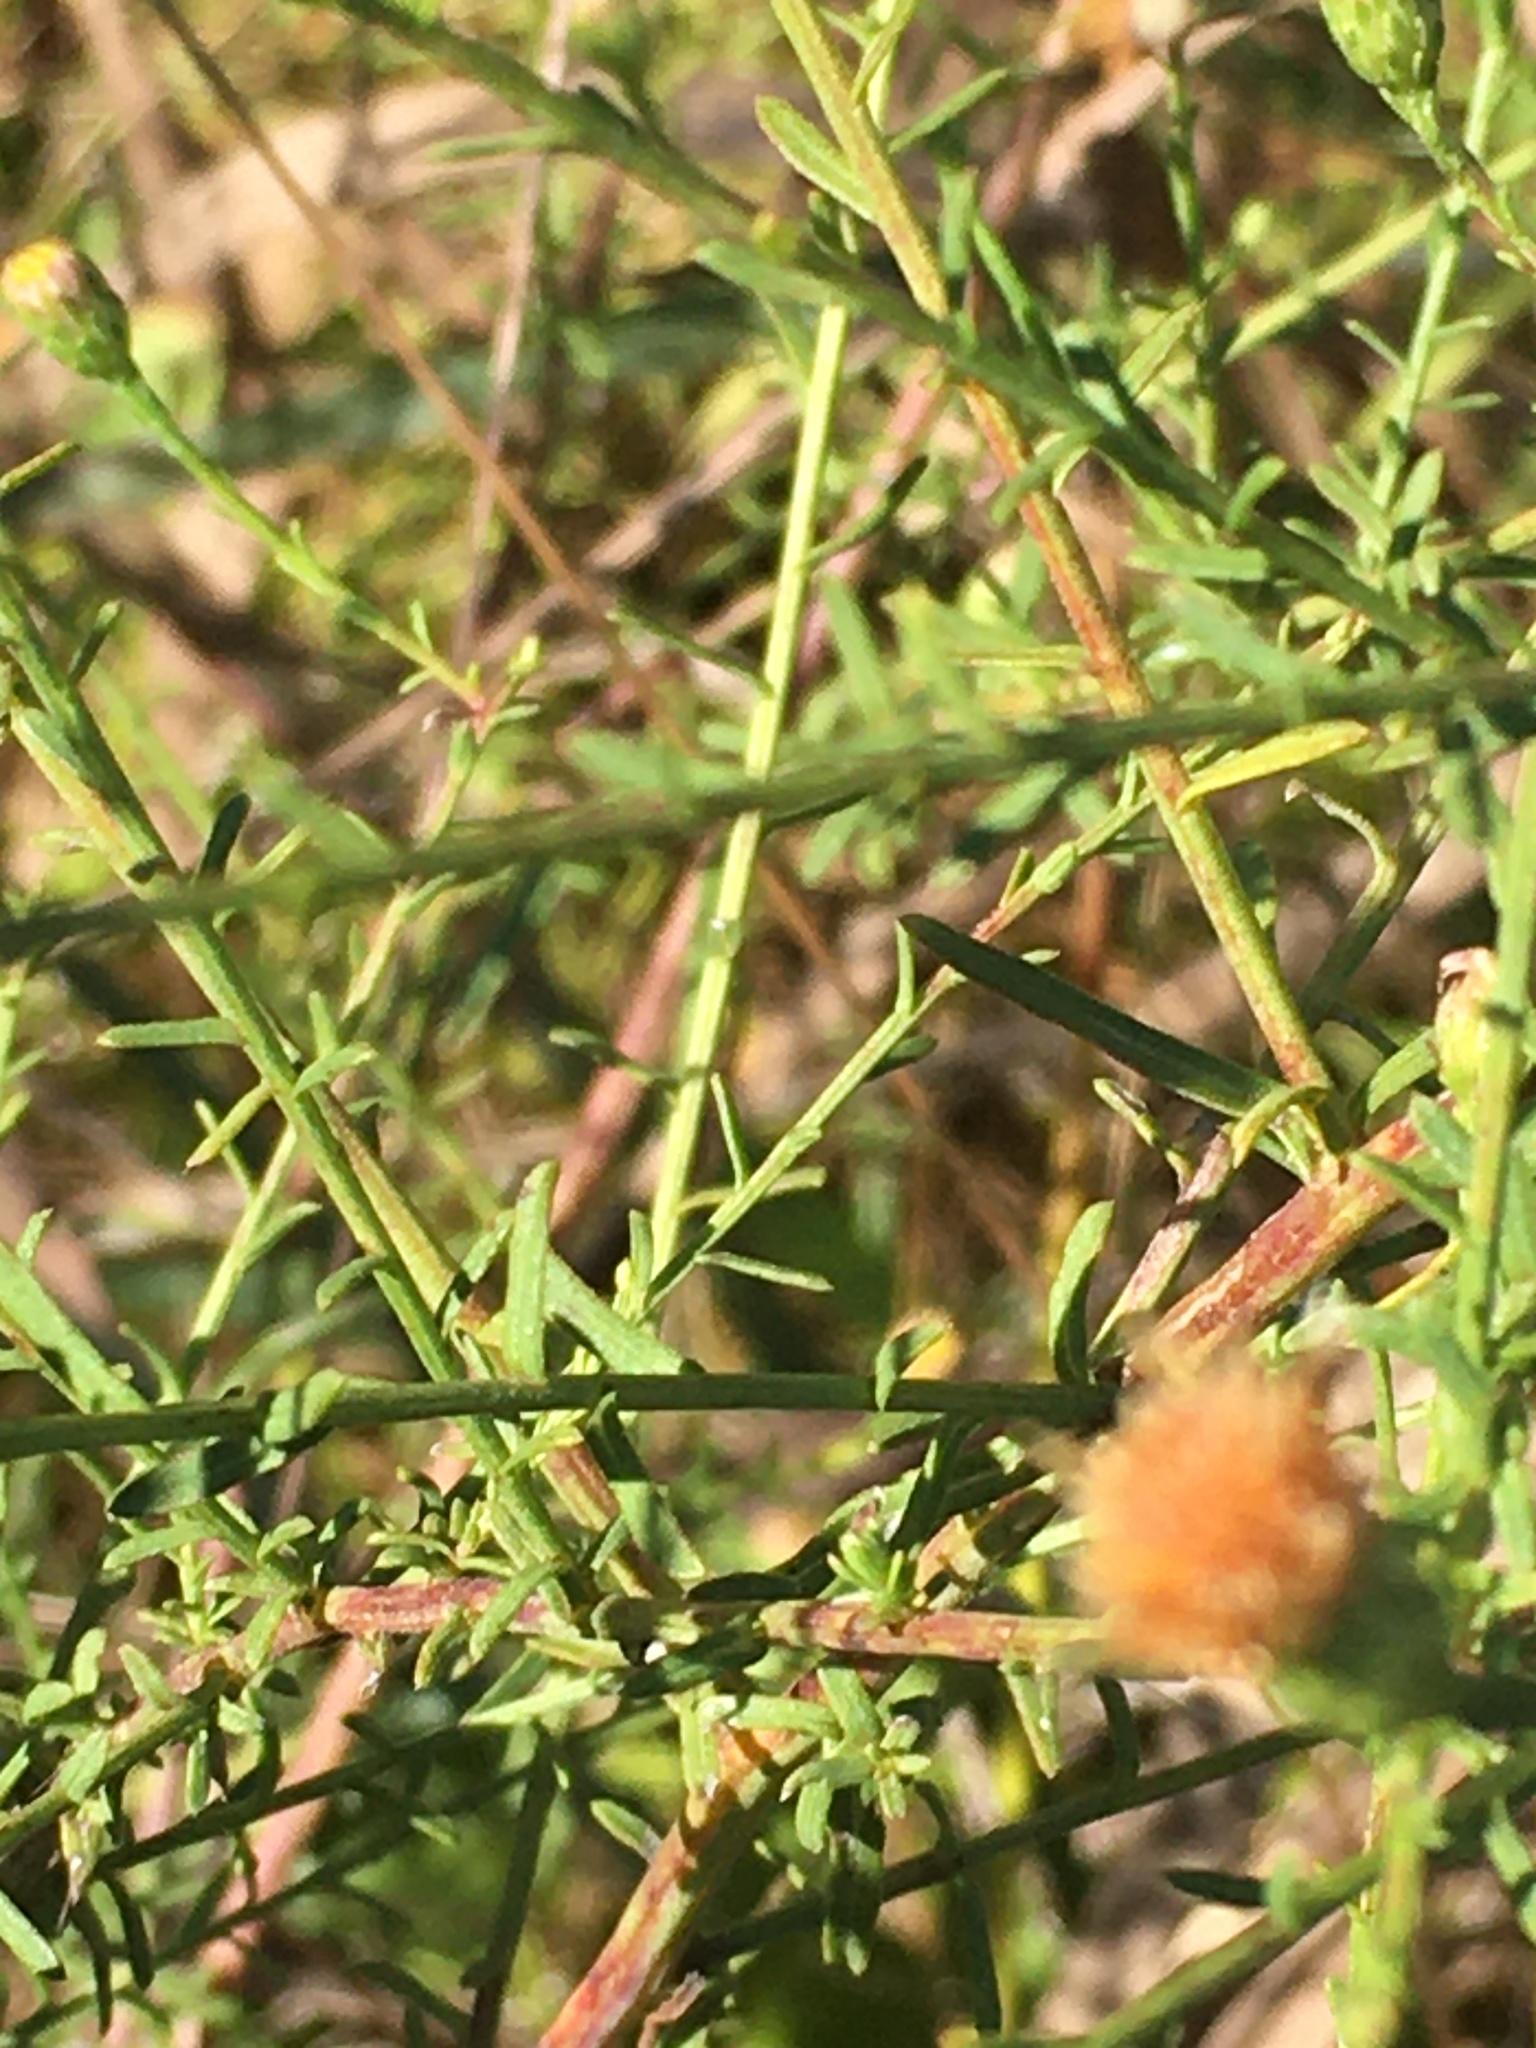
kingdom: Plantae
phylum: Tracheophyta
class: Magnoliopsida
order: Asterales
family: Asteraceae
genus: Symphyotrichum
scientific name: Symphyotrichum dumosum
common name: Bushy aster
